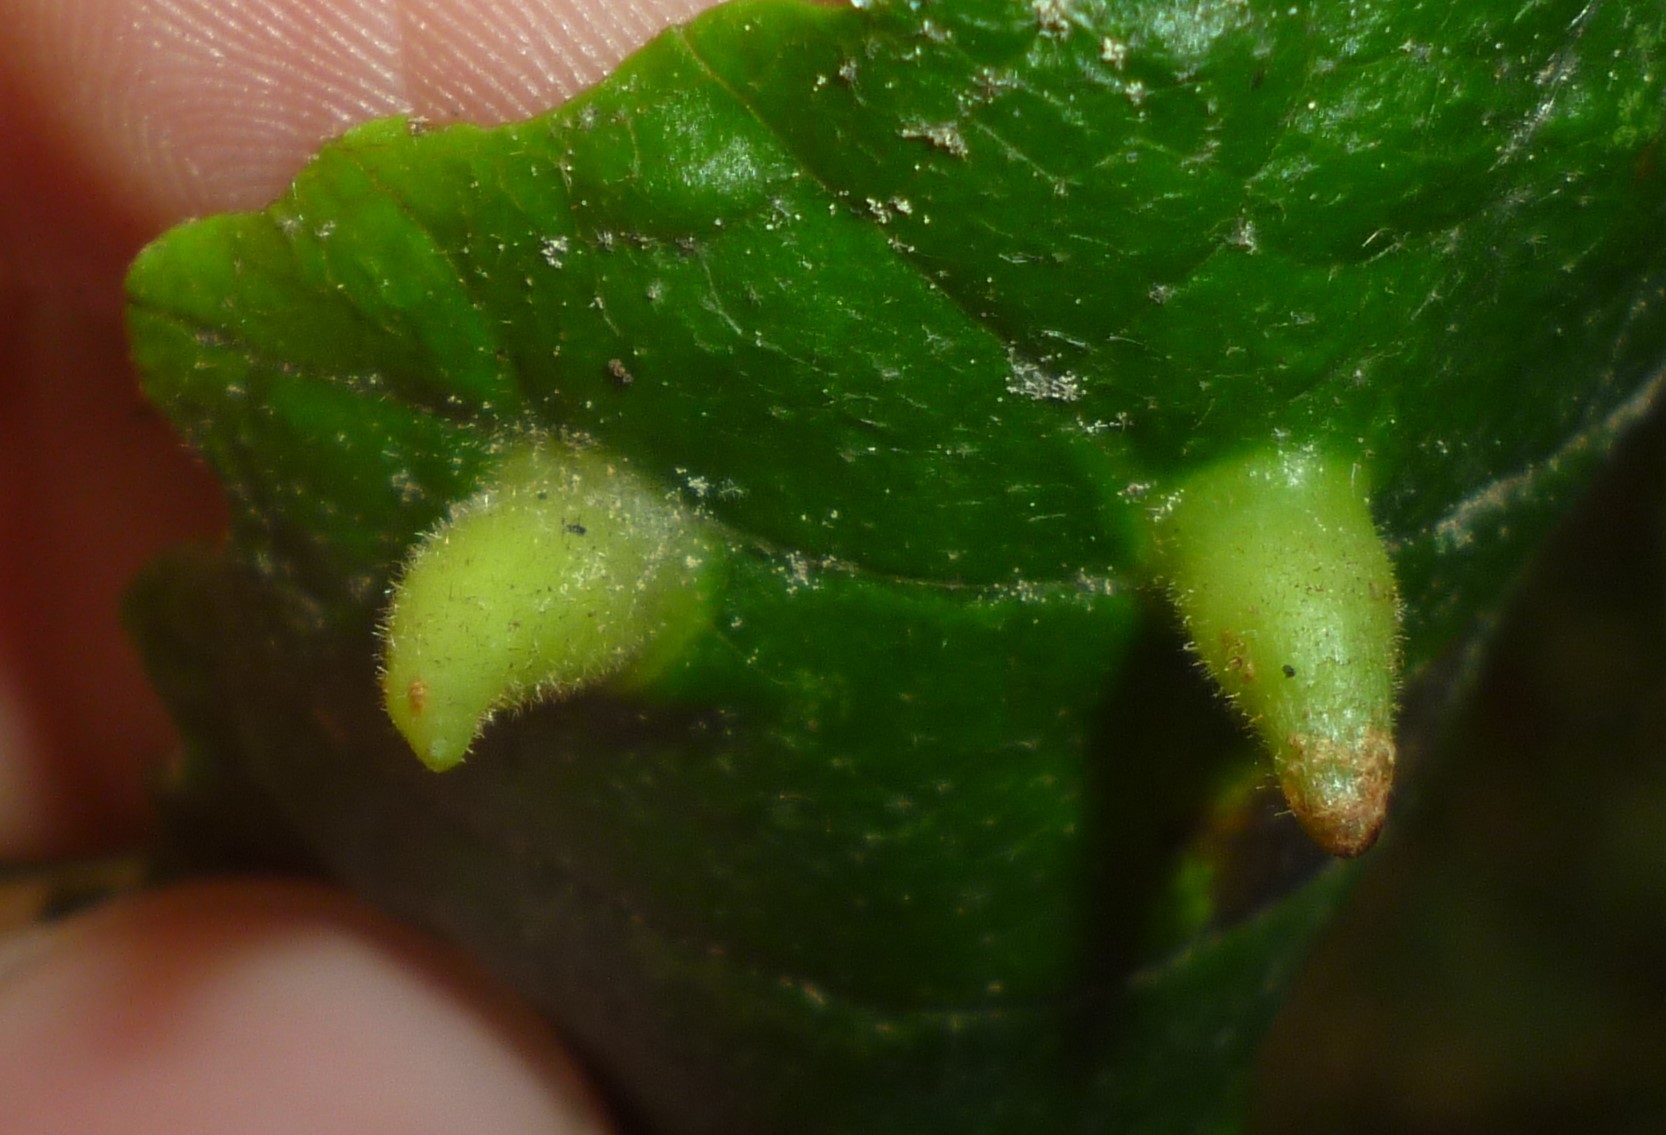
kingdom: Animalia
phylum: Arthropoda
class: Insecta
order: Hemiptera
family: Aphididae
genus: Hormaphis
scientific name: Hormaphis hamamelidis
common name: Witch-hazel cone gall aphid
